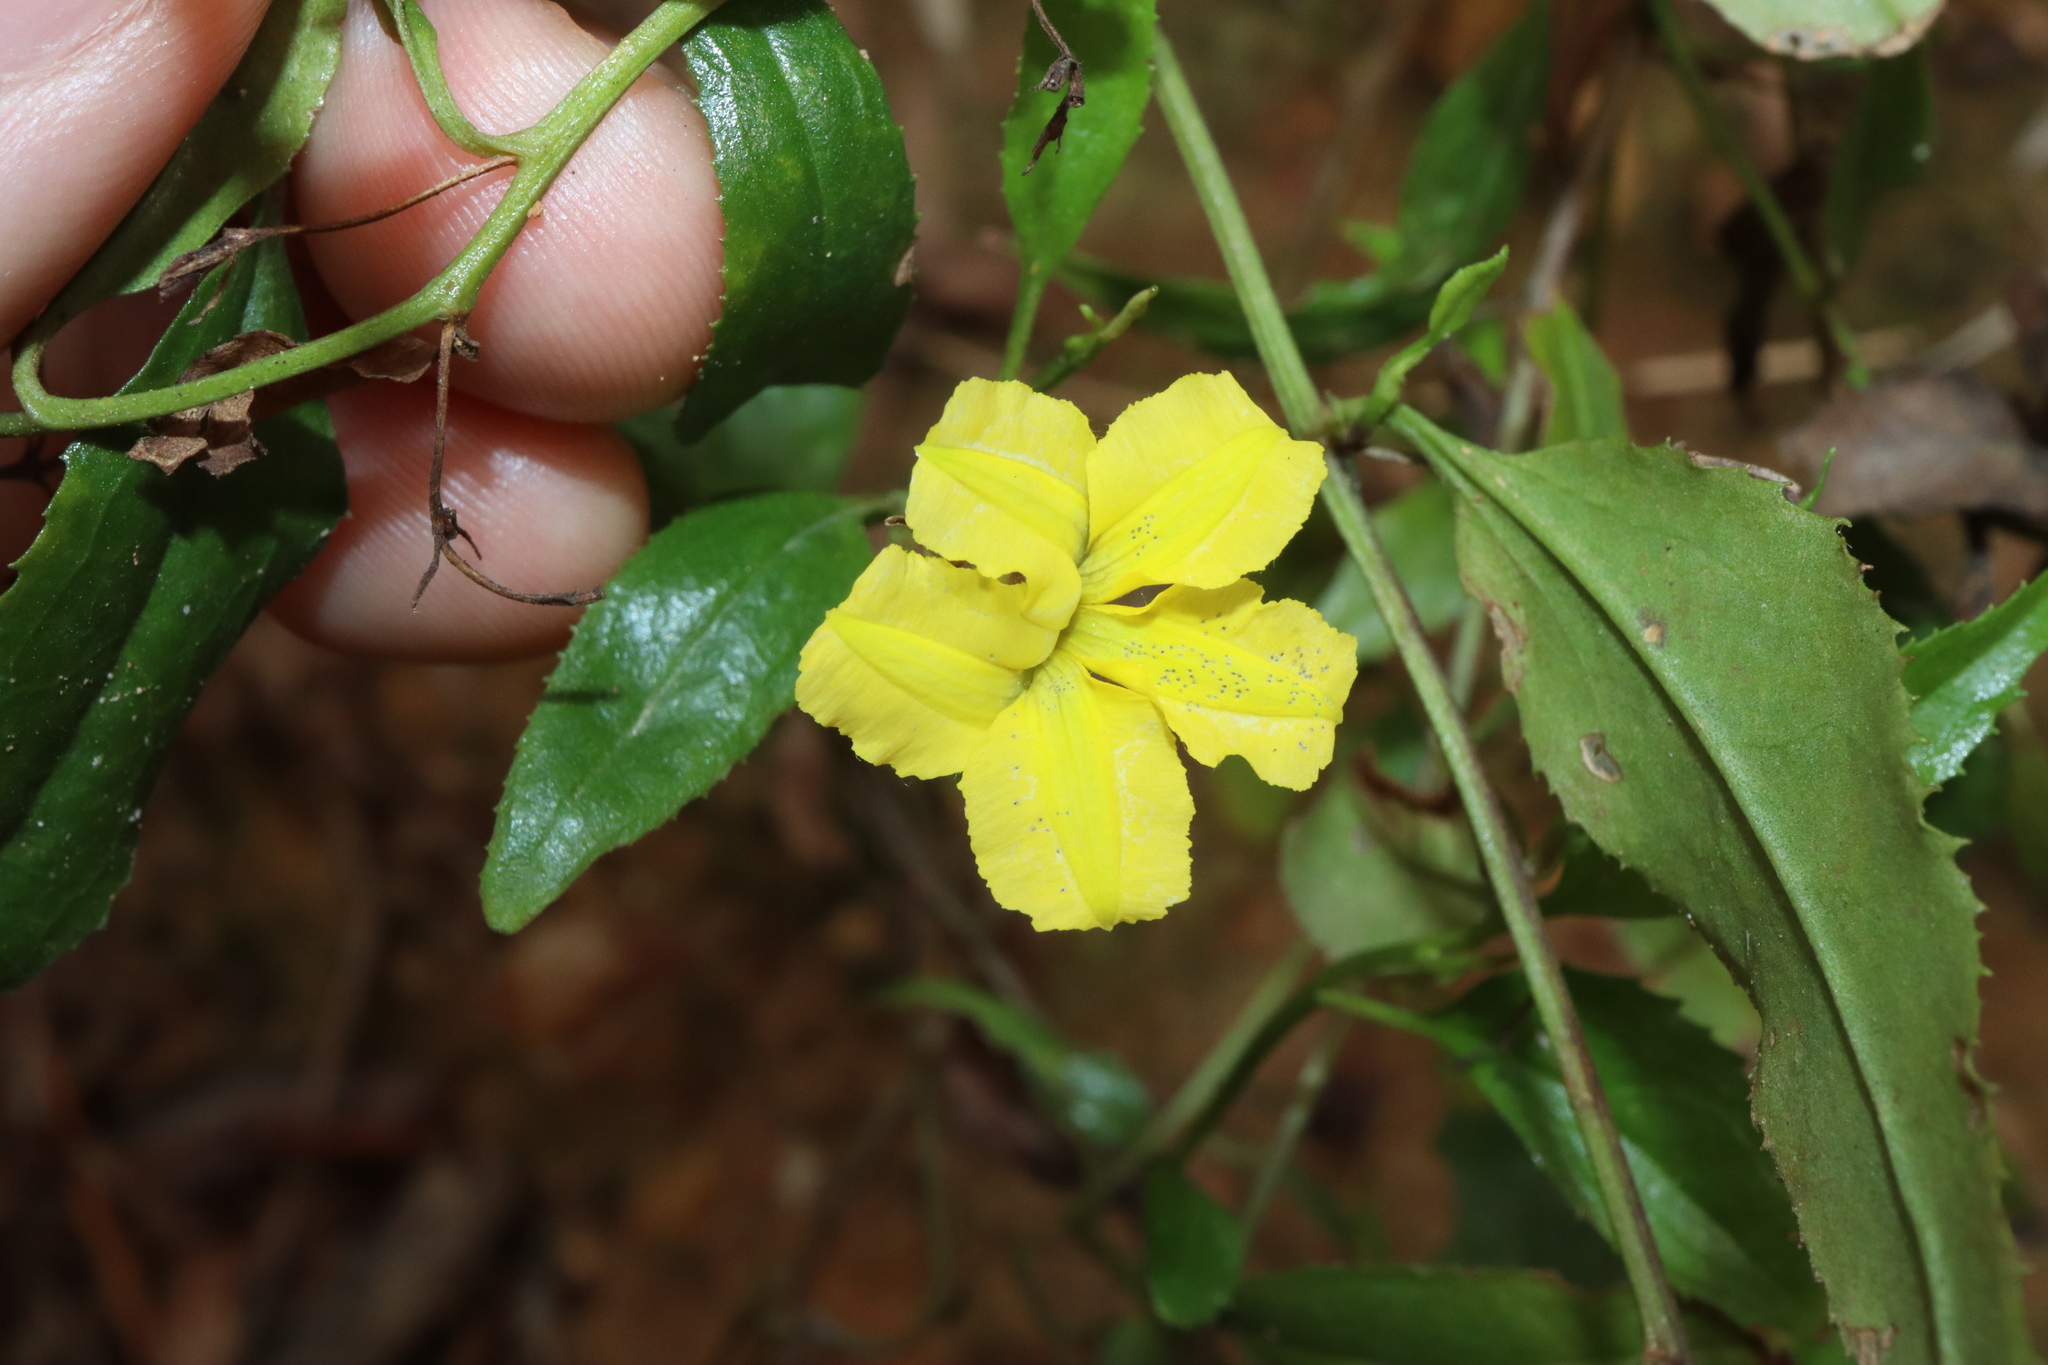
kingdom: Plantae
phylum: Tracheophyta
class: Magnoliopsida
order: Asterales
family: Goodeniaceae
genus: Goodenia
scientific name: Goodenia ovata
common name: Hop goodenia
